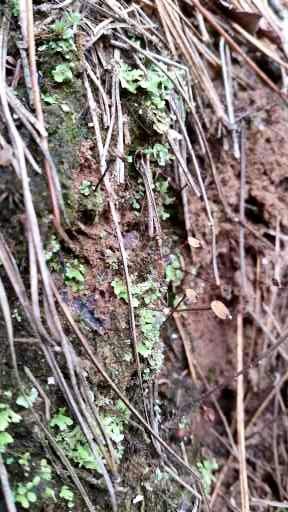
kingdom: Plantae
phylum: Bryophyta
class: Bryopsida
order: Buxbaumiales
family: Buxbaumiaceae
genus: Buxbaumia
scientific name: Buxbaumia aphylla
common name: Brown shield-moss
